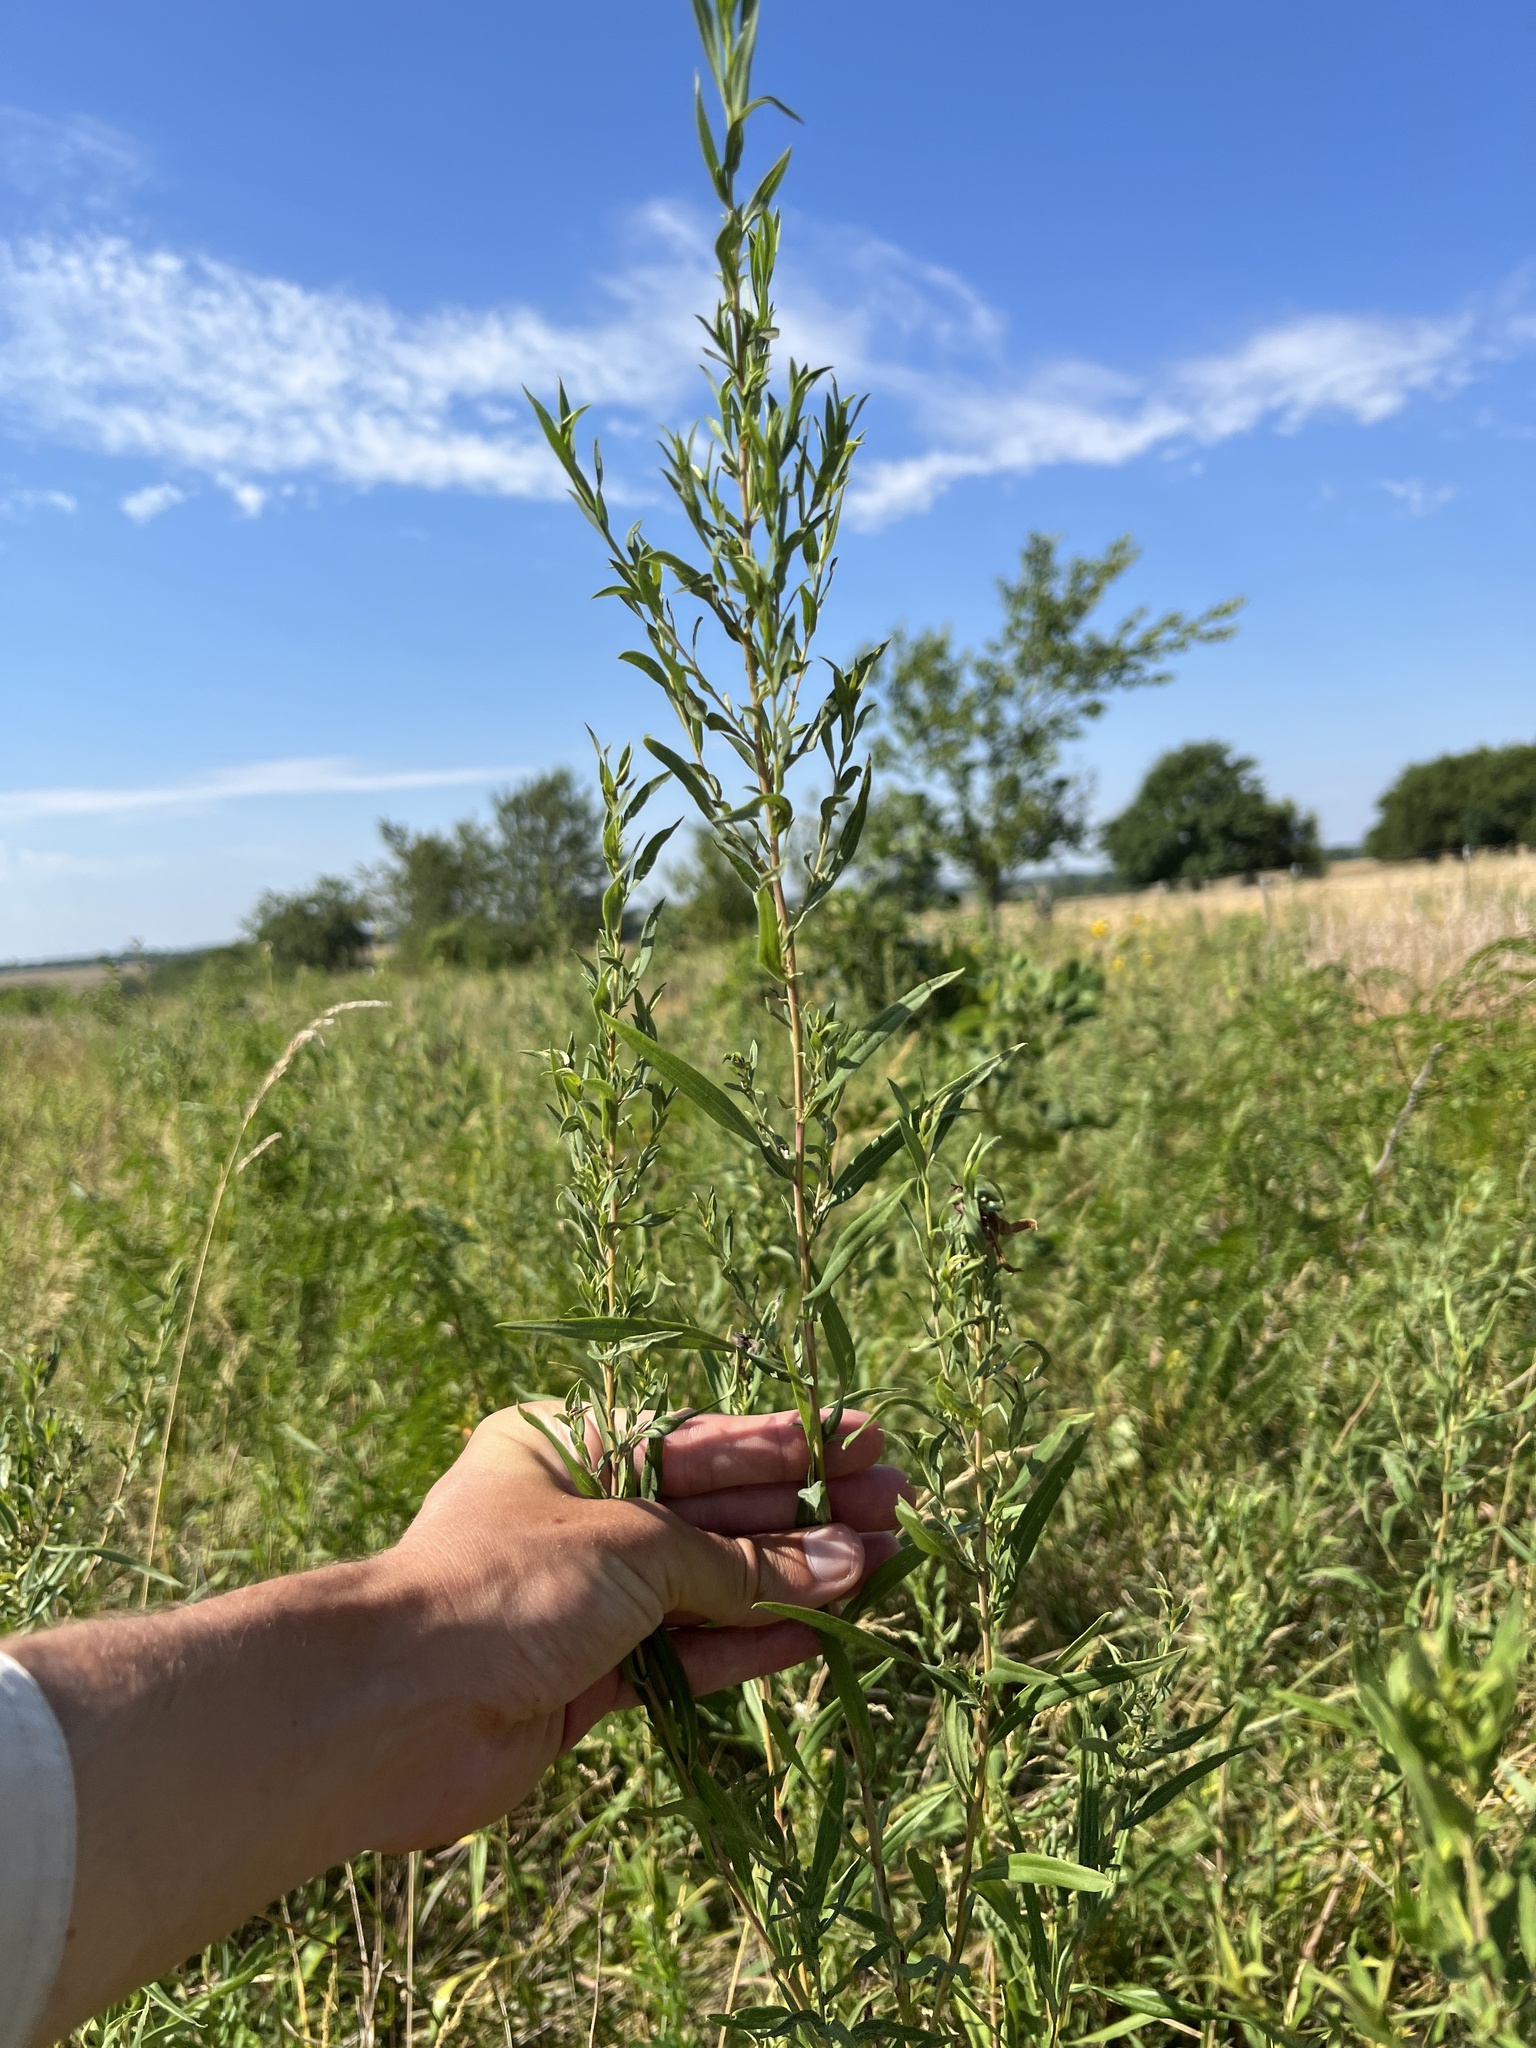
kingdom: Plantae
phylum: Tracheophyta
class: Magnoliopsida
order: Asterales
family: Asteraceae
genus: Symphyotrichum
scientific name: Symphyotrichum dumosum
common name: Bushy aster
